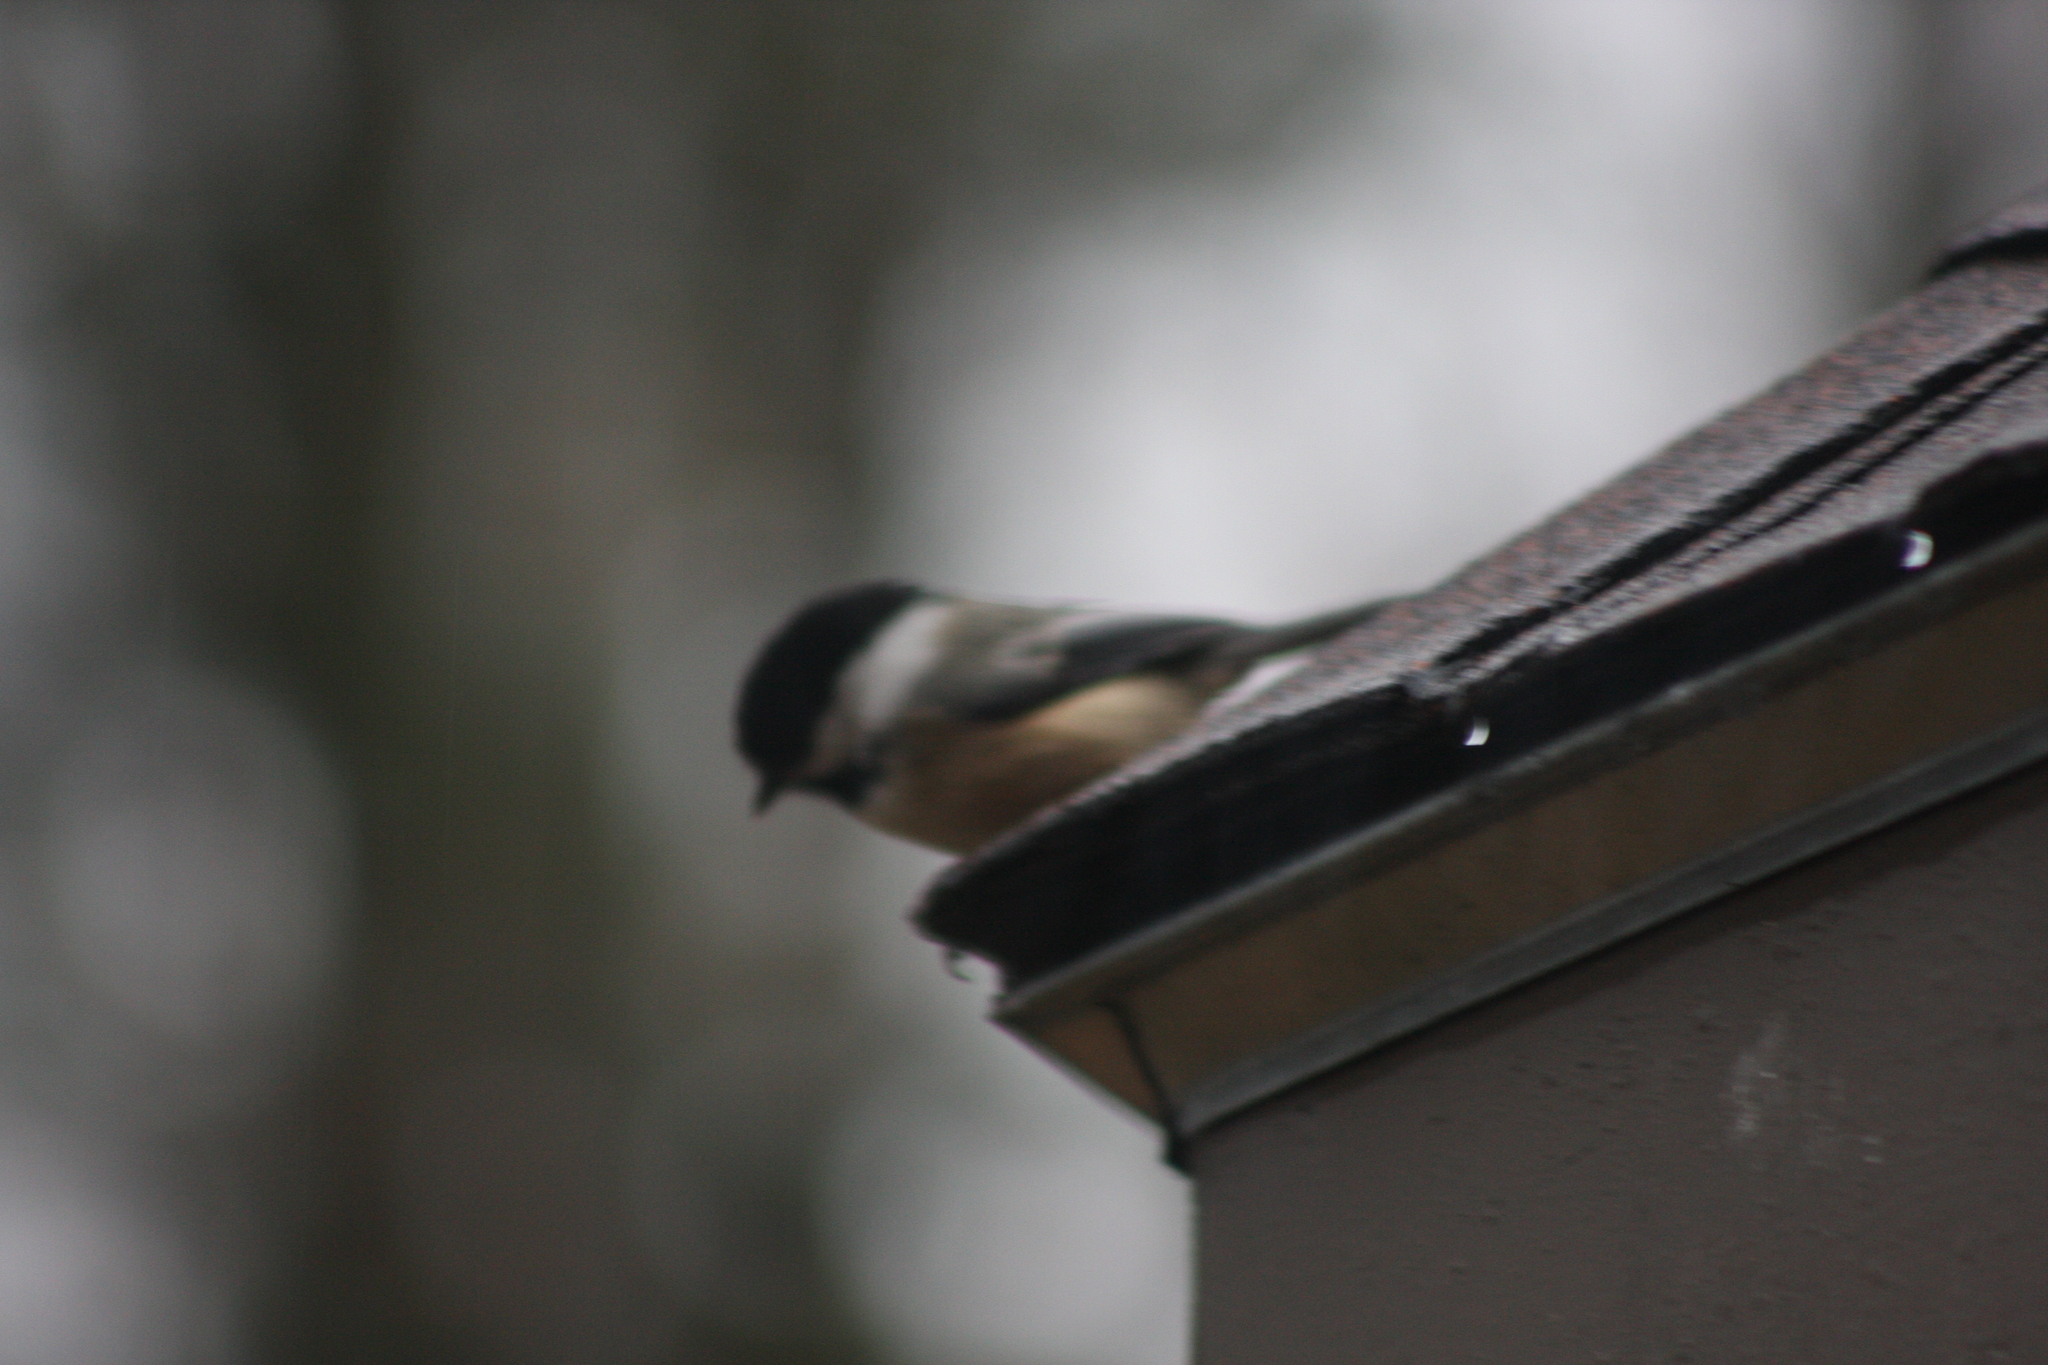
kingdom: Animalia
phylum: Chordata
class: Aves
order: Passeriformes
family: Paridae
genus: Poecile
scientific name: Poecile atricapillus
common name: Black-capped chickadee
